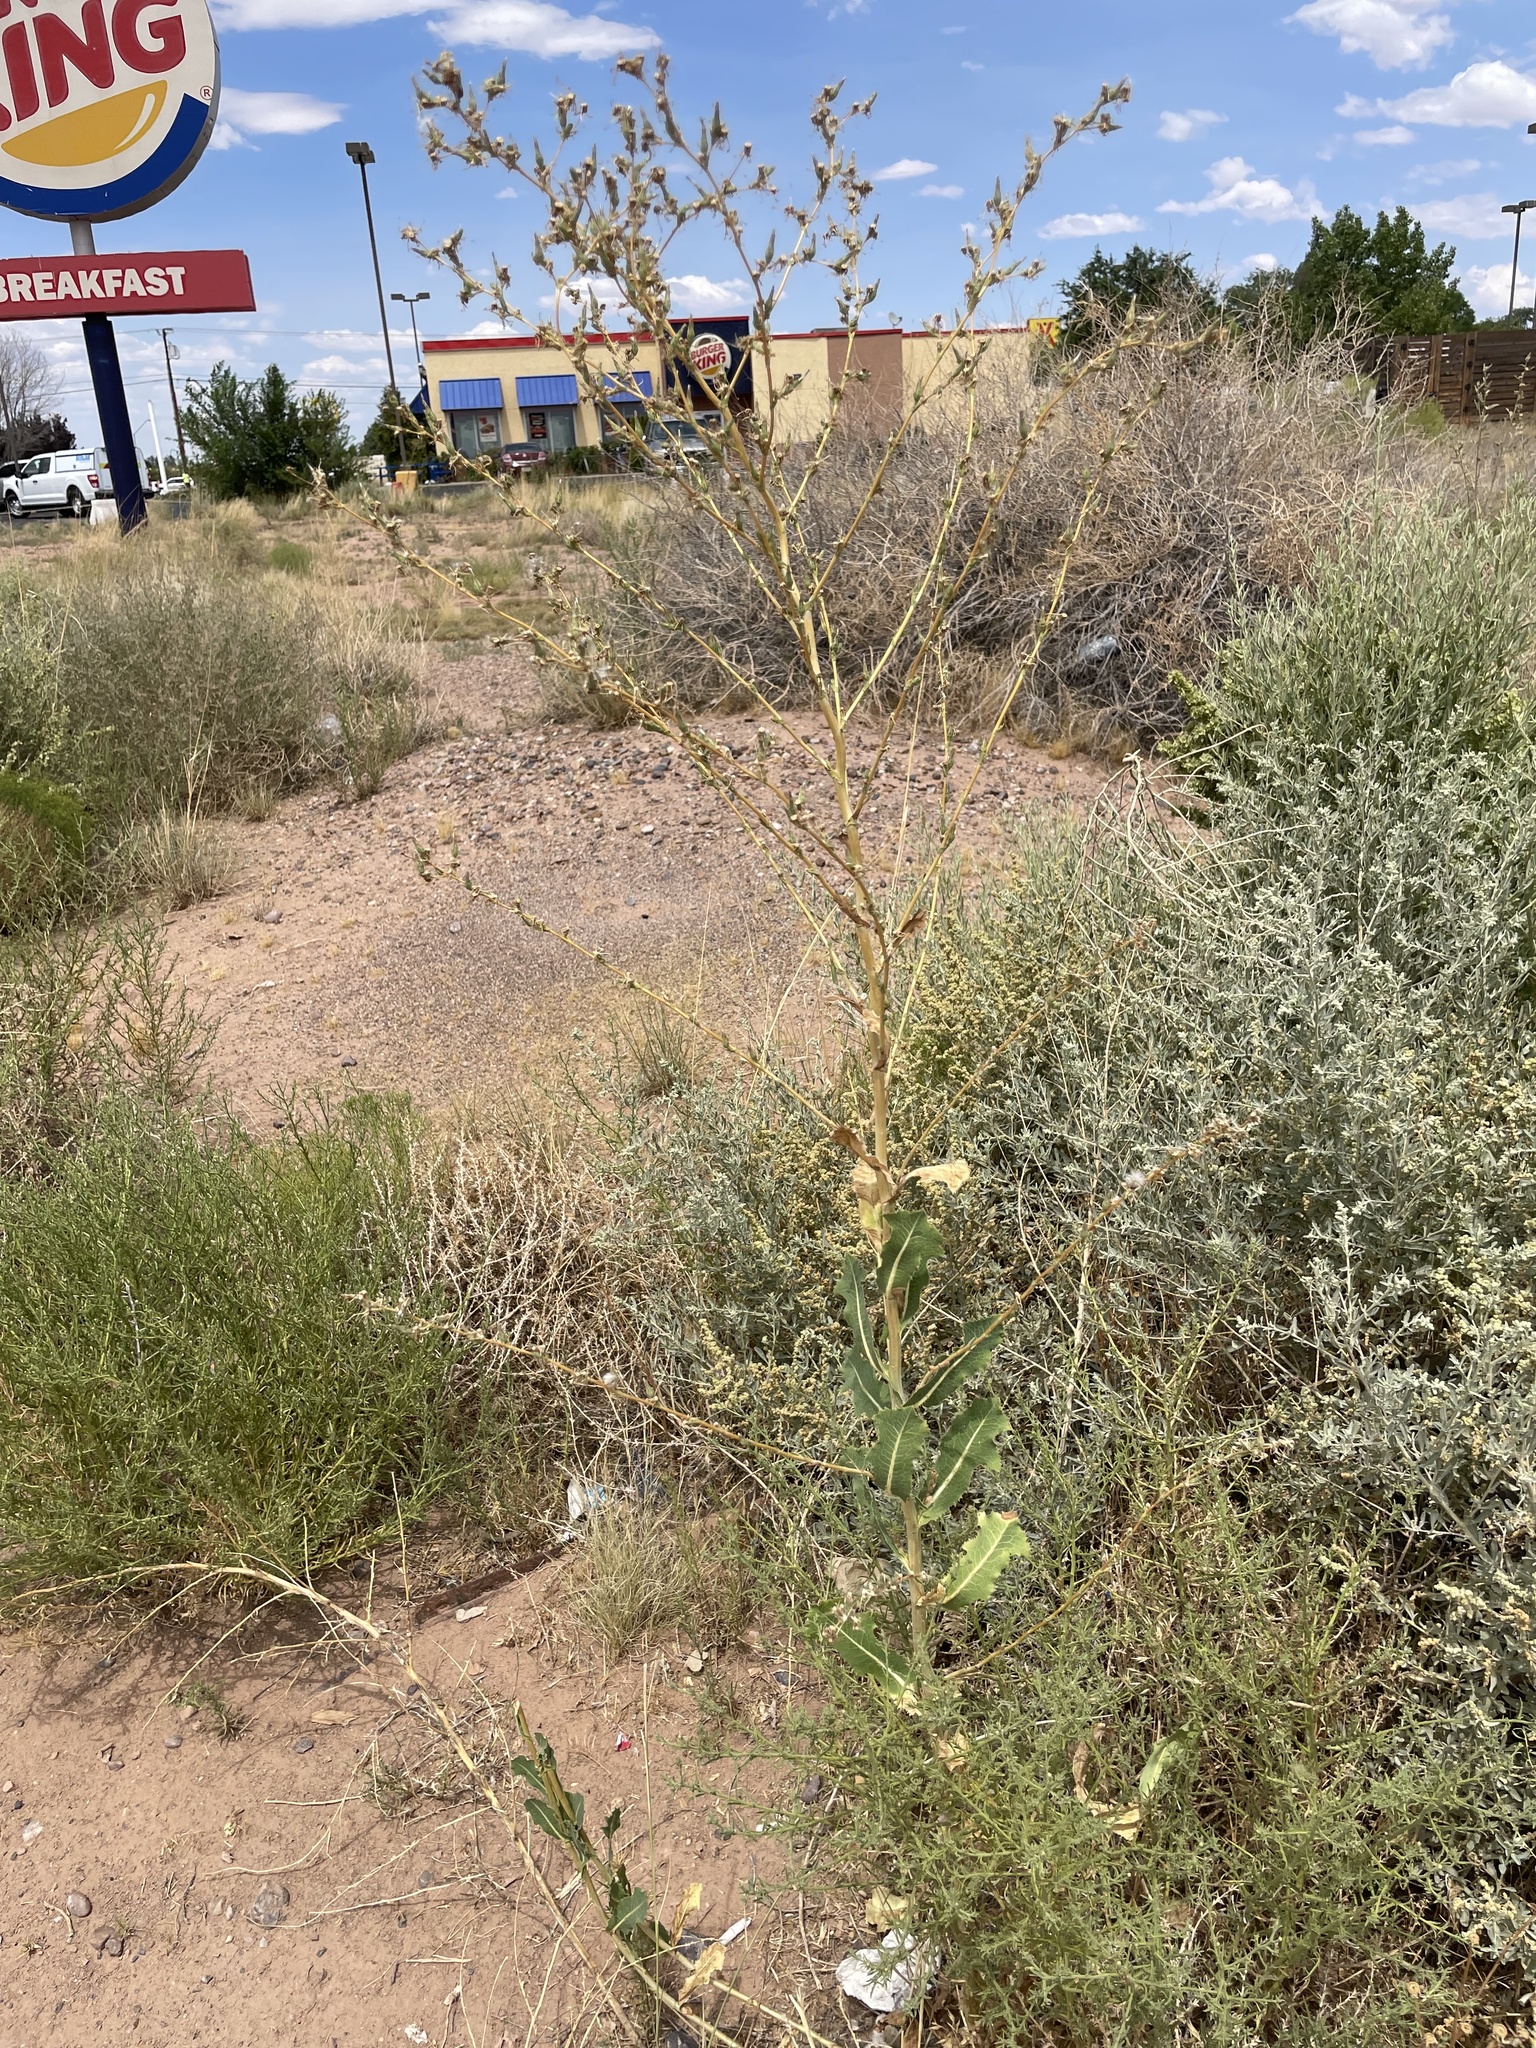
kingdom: Plantae
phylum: Tracheophyta
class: Magnoliopsida
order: Asterales
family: Asteraceae
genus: Lactuca
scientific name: Lactuca serriola
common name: Prickly lettuce
